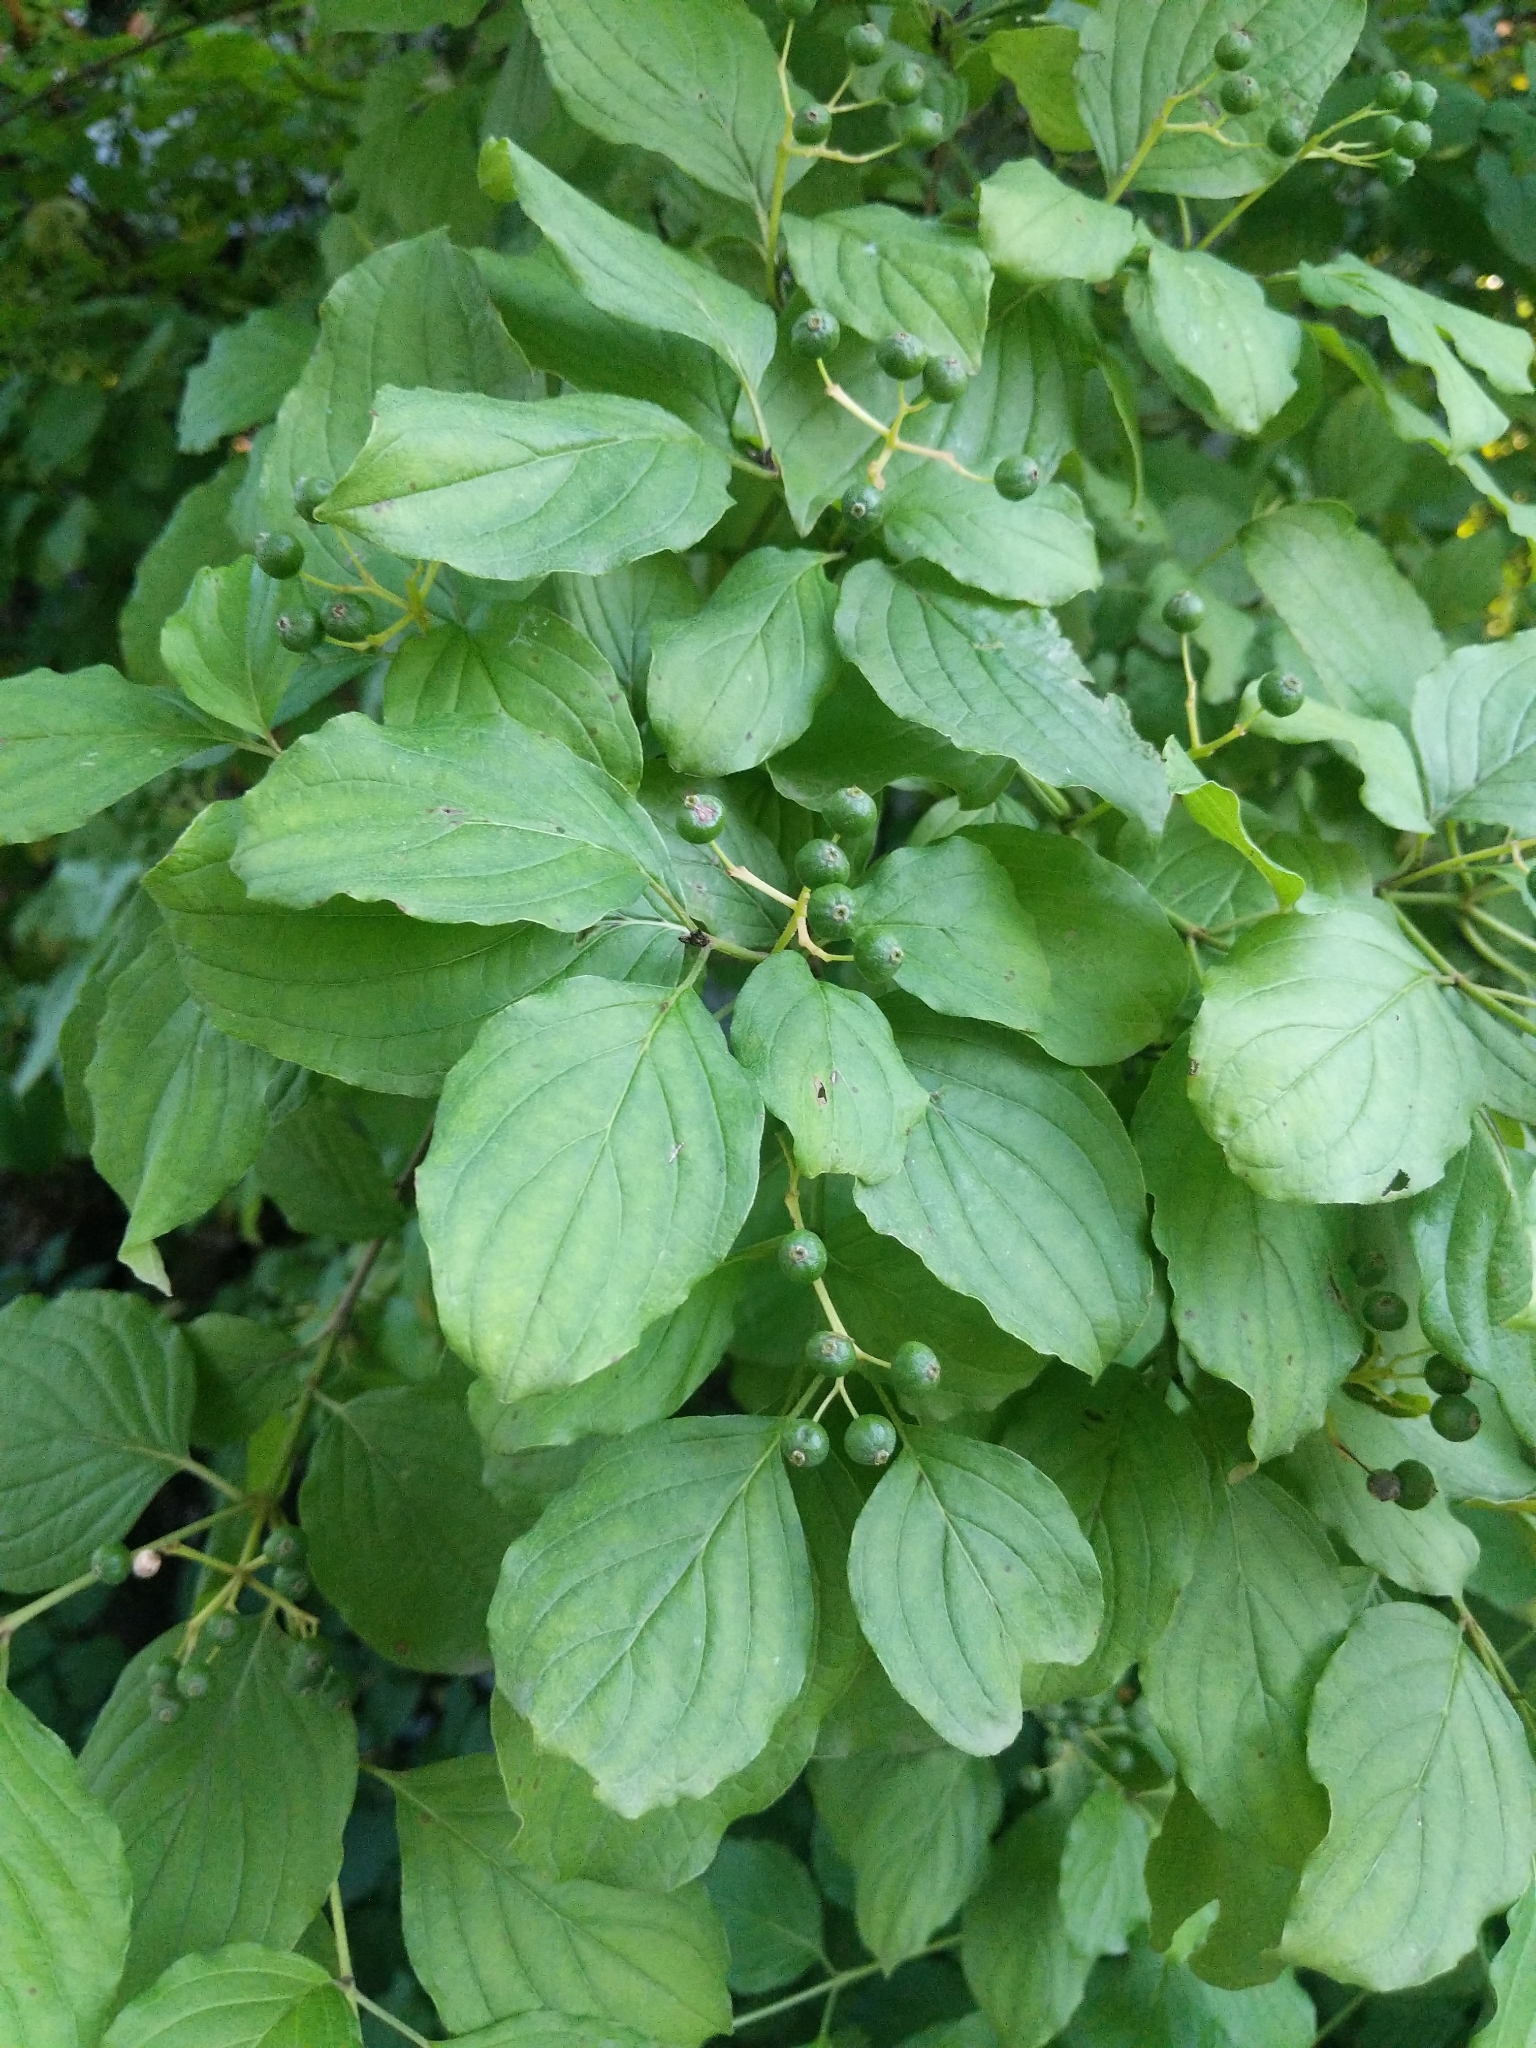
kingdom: Plantae
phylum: Tracheophyta
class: Magnoliopsida
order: Cornales
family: Cornaceae
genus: Cornus
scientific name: Cornus sanguinea
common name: Dogwood
